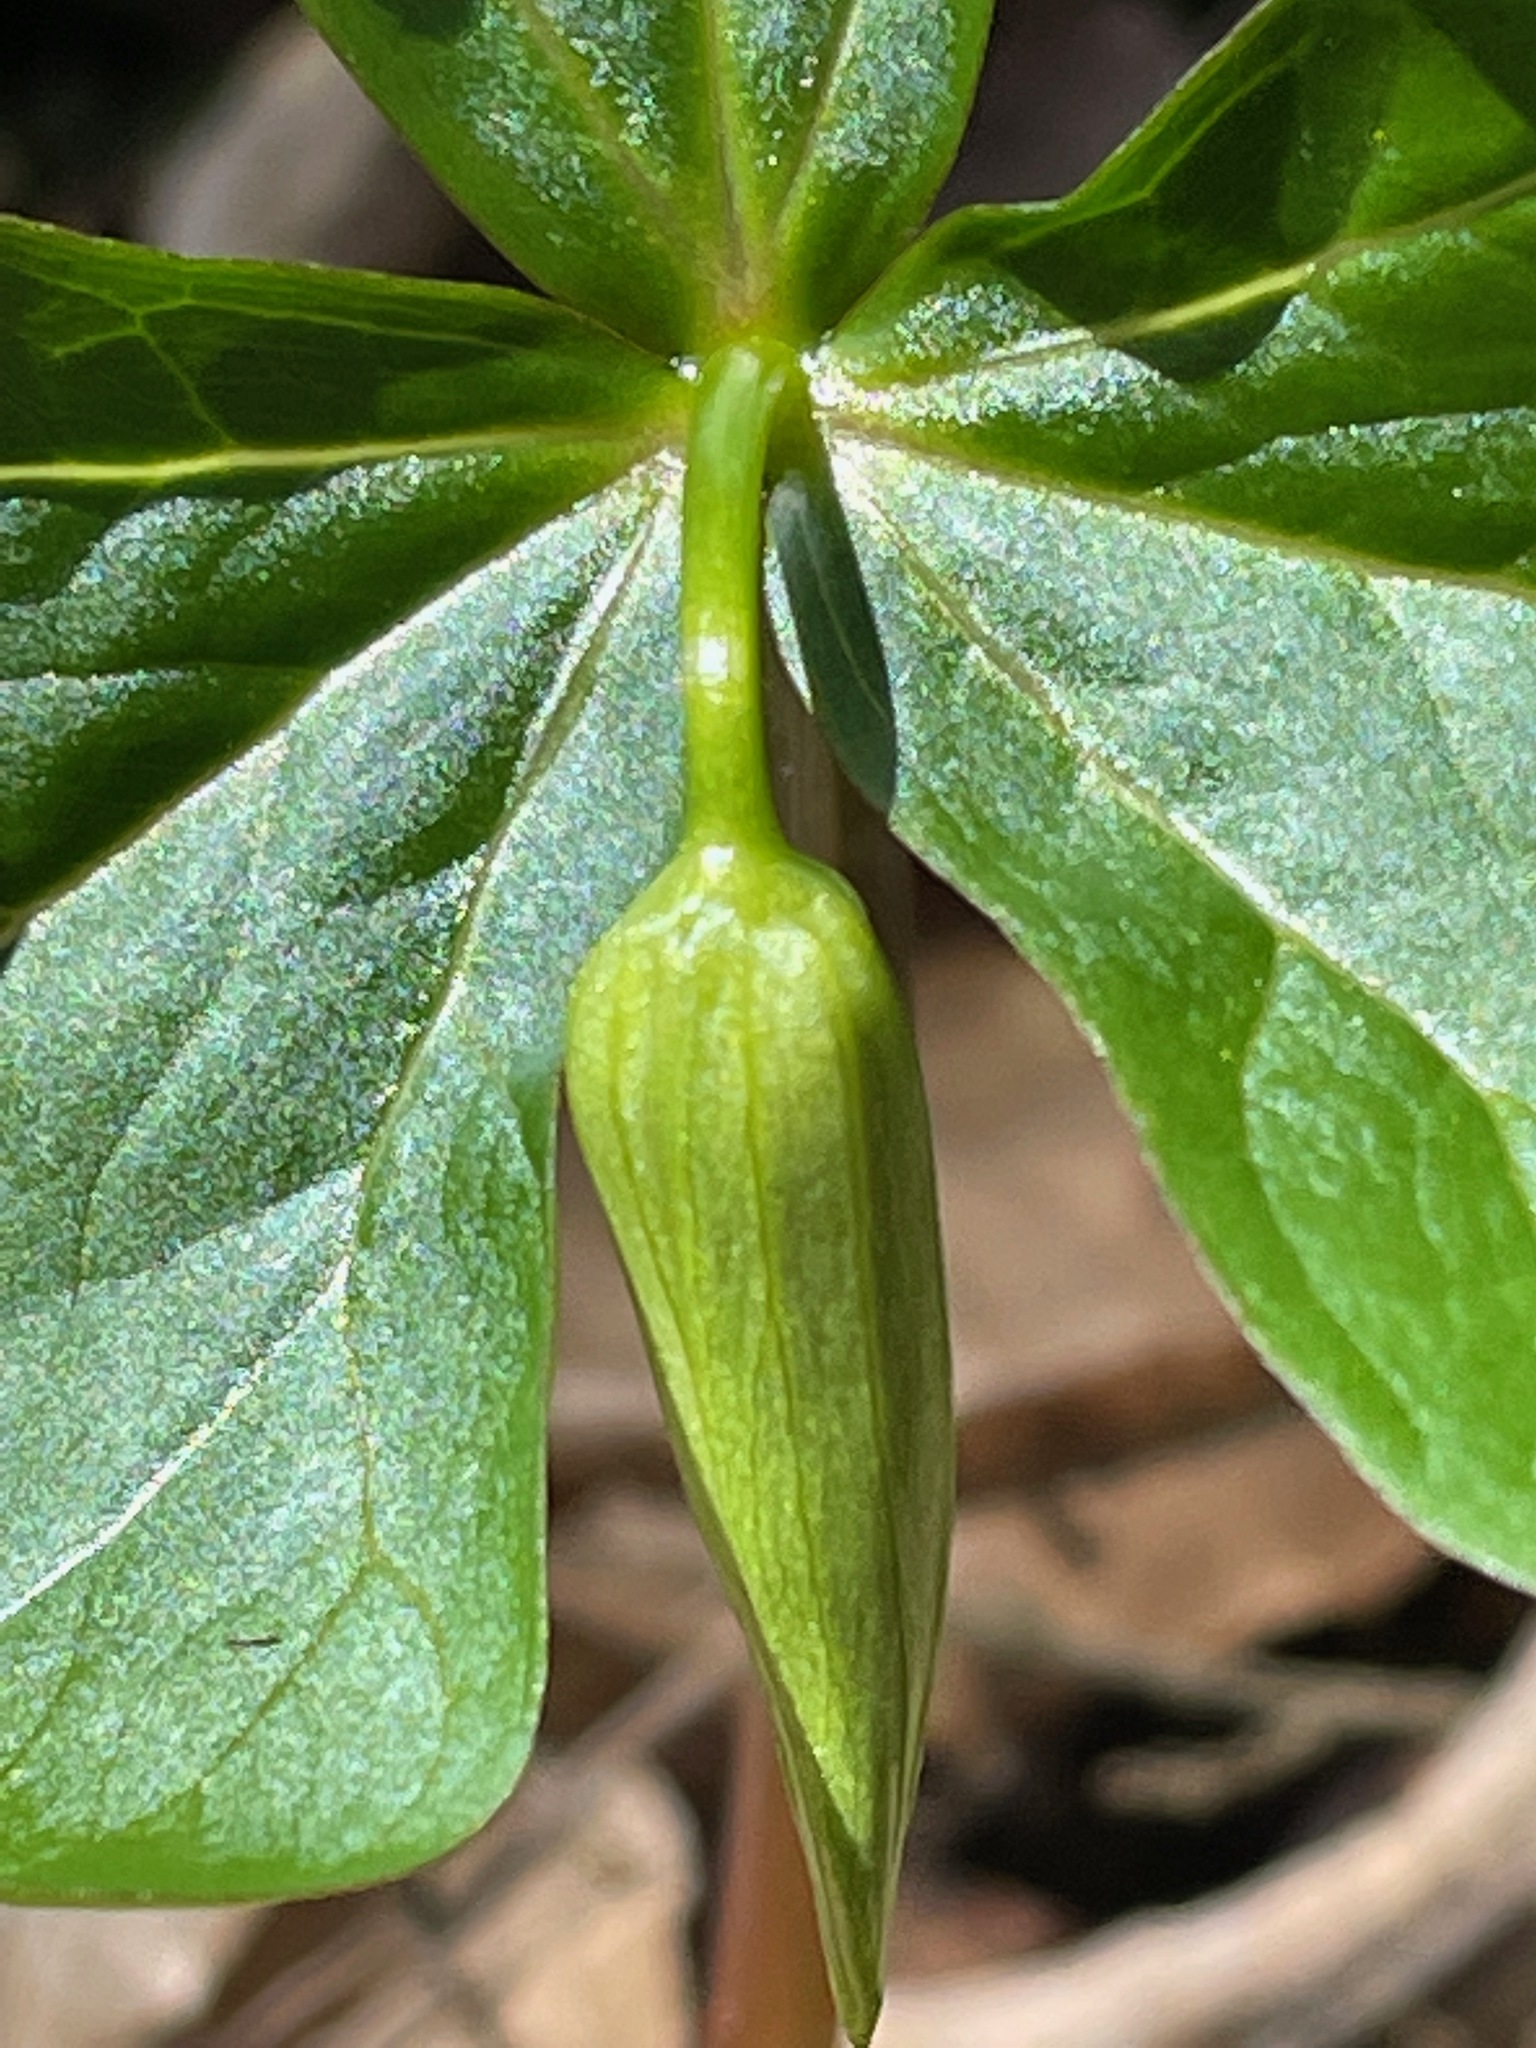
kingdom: Plantae
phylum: Tracheophyta
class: Liliopsida
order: Liliales
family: Melanthiaceae
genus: Trillium
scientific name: Trillium erectum
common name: Purple trillium
